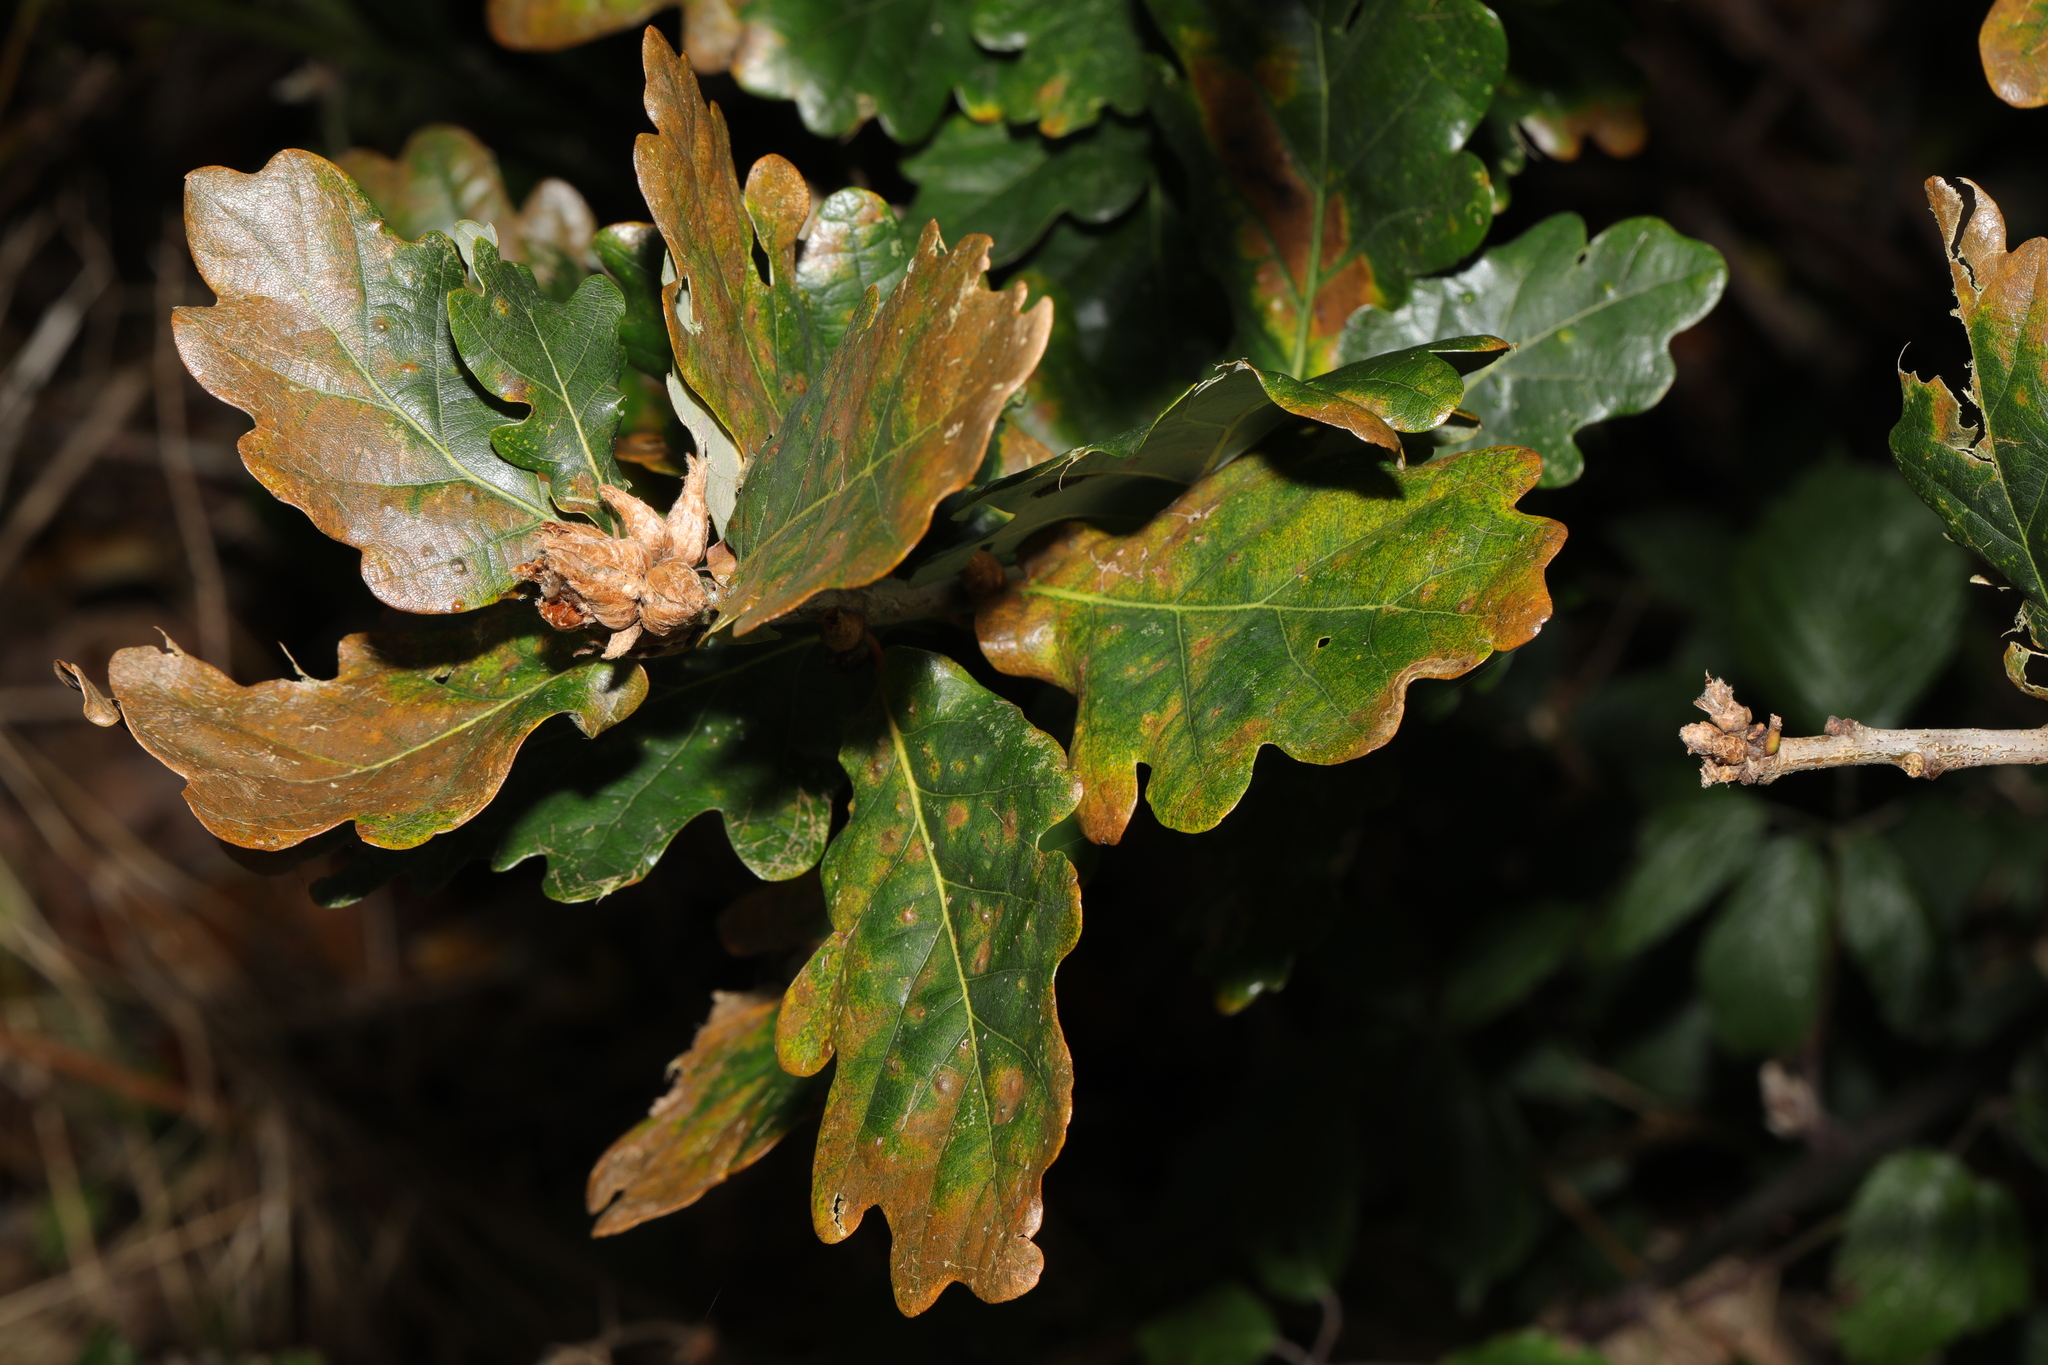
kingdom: Plantae
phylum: Tracheophyta
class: Magnoliopsida
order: Fagales
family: Fagaceae
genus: Quercus
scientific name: Quercus robur
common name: Pedunculate oak
